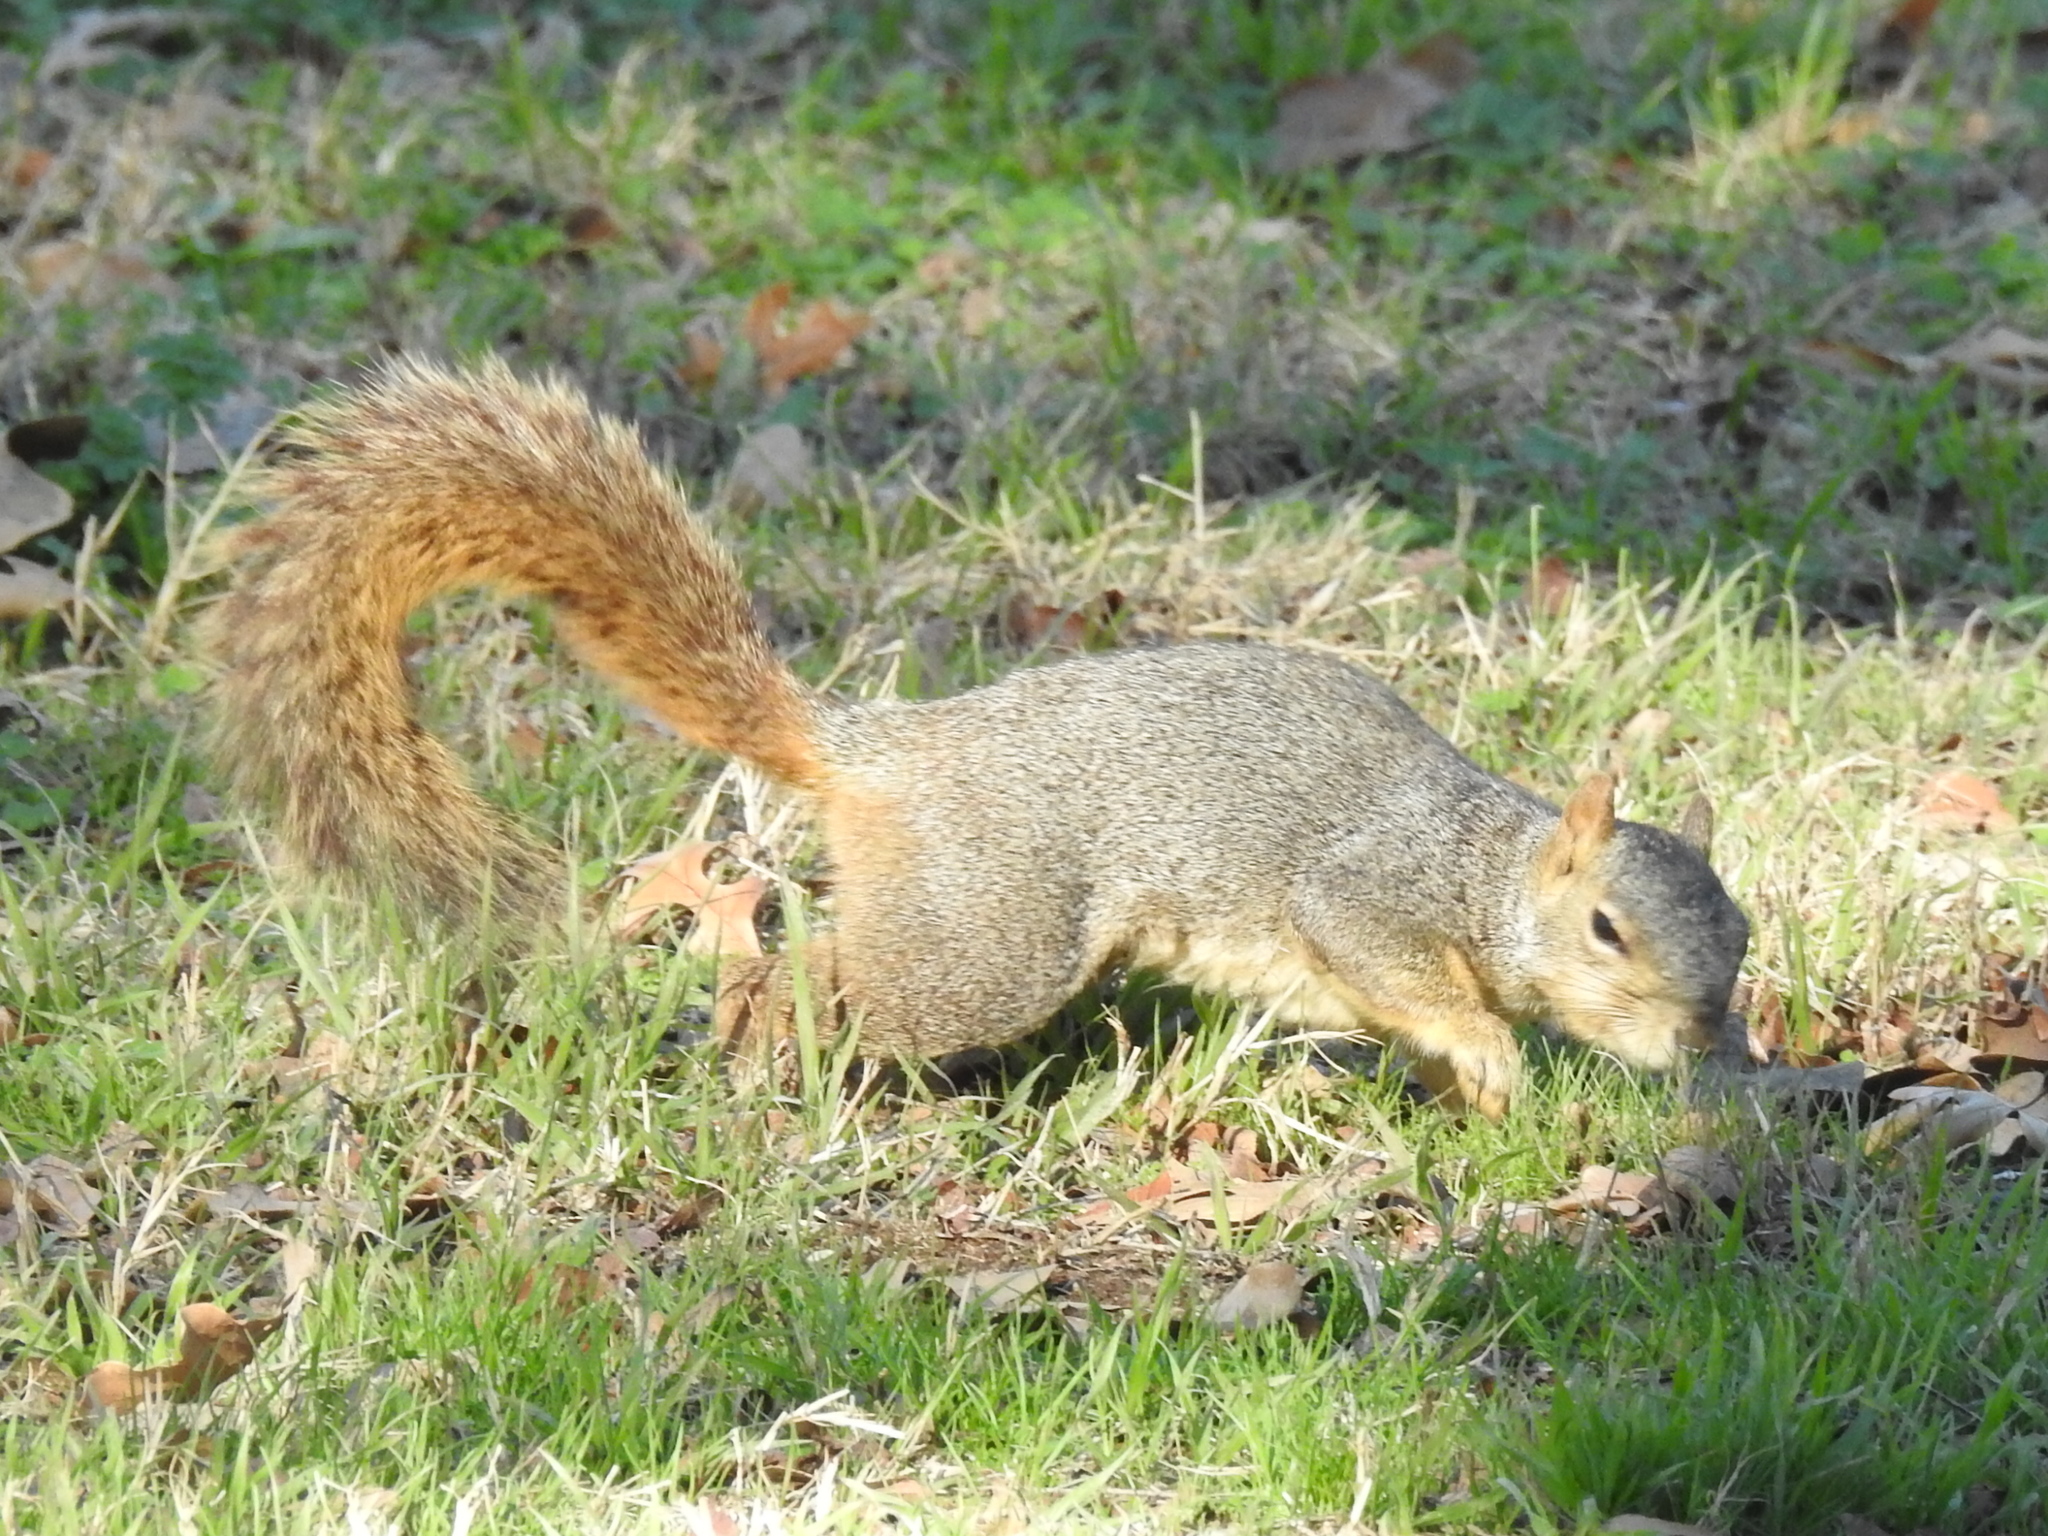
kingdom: Animalia
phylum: Chordata
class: Mammalia
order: Rodentia
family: Sciuridae
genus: Sciurus
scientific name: Sciurus niger
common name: Fox squirrel
